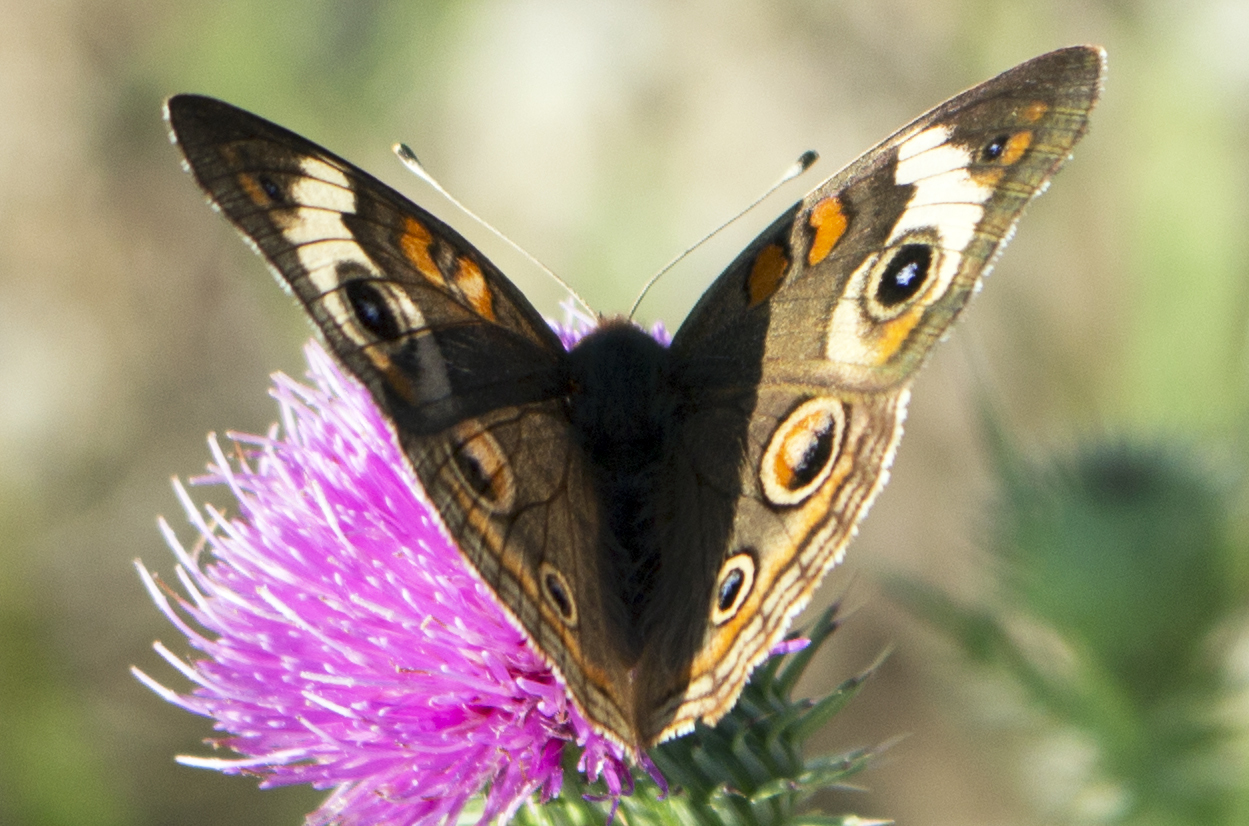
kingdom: Animalia
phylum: Arthropoda
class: Insecta
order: Lepidoptera
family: Nymphalidae
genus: Junonia
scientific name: Junonia coenia
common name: Common buckeye
